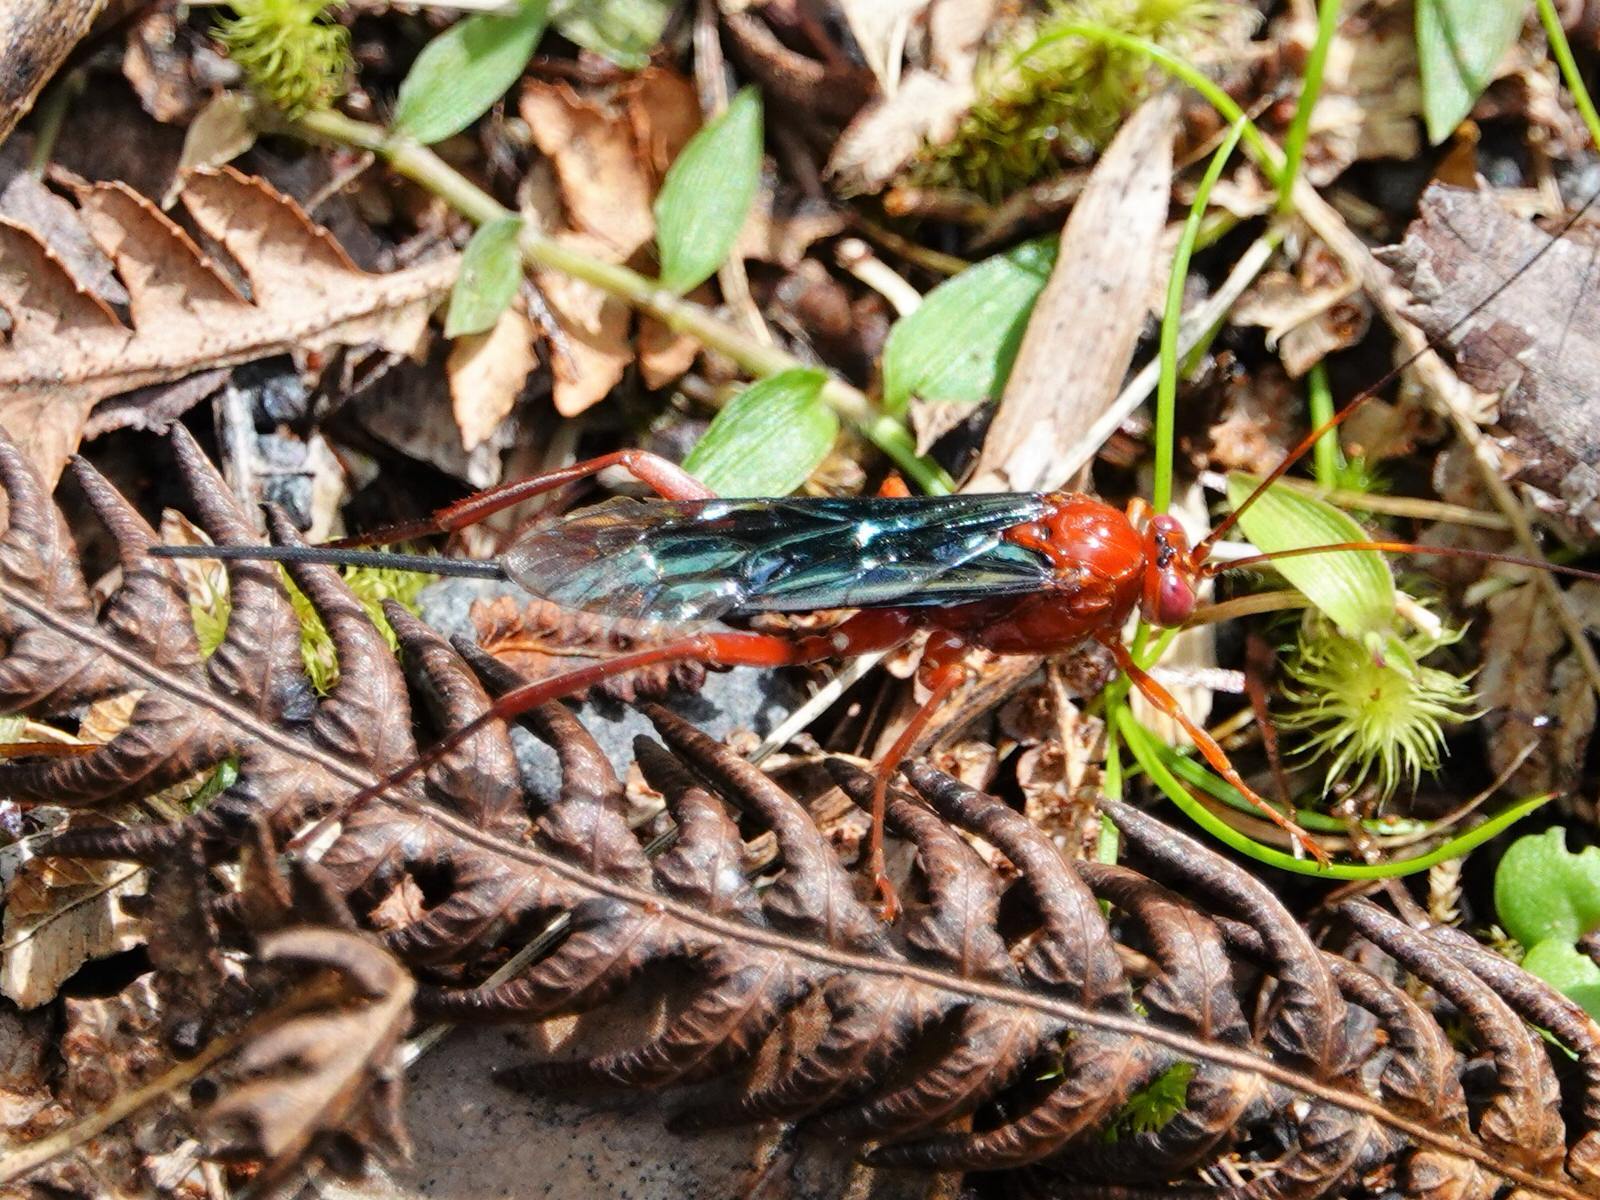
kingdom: Animalia
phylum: Arthropoda
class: Insecta
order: Hymenoptera
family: Ichneumonidae
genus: Lissopimpla
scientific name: Lissopimpla excelsa
